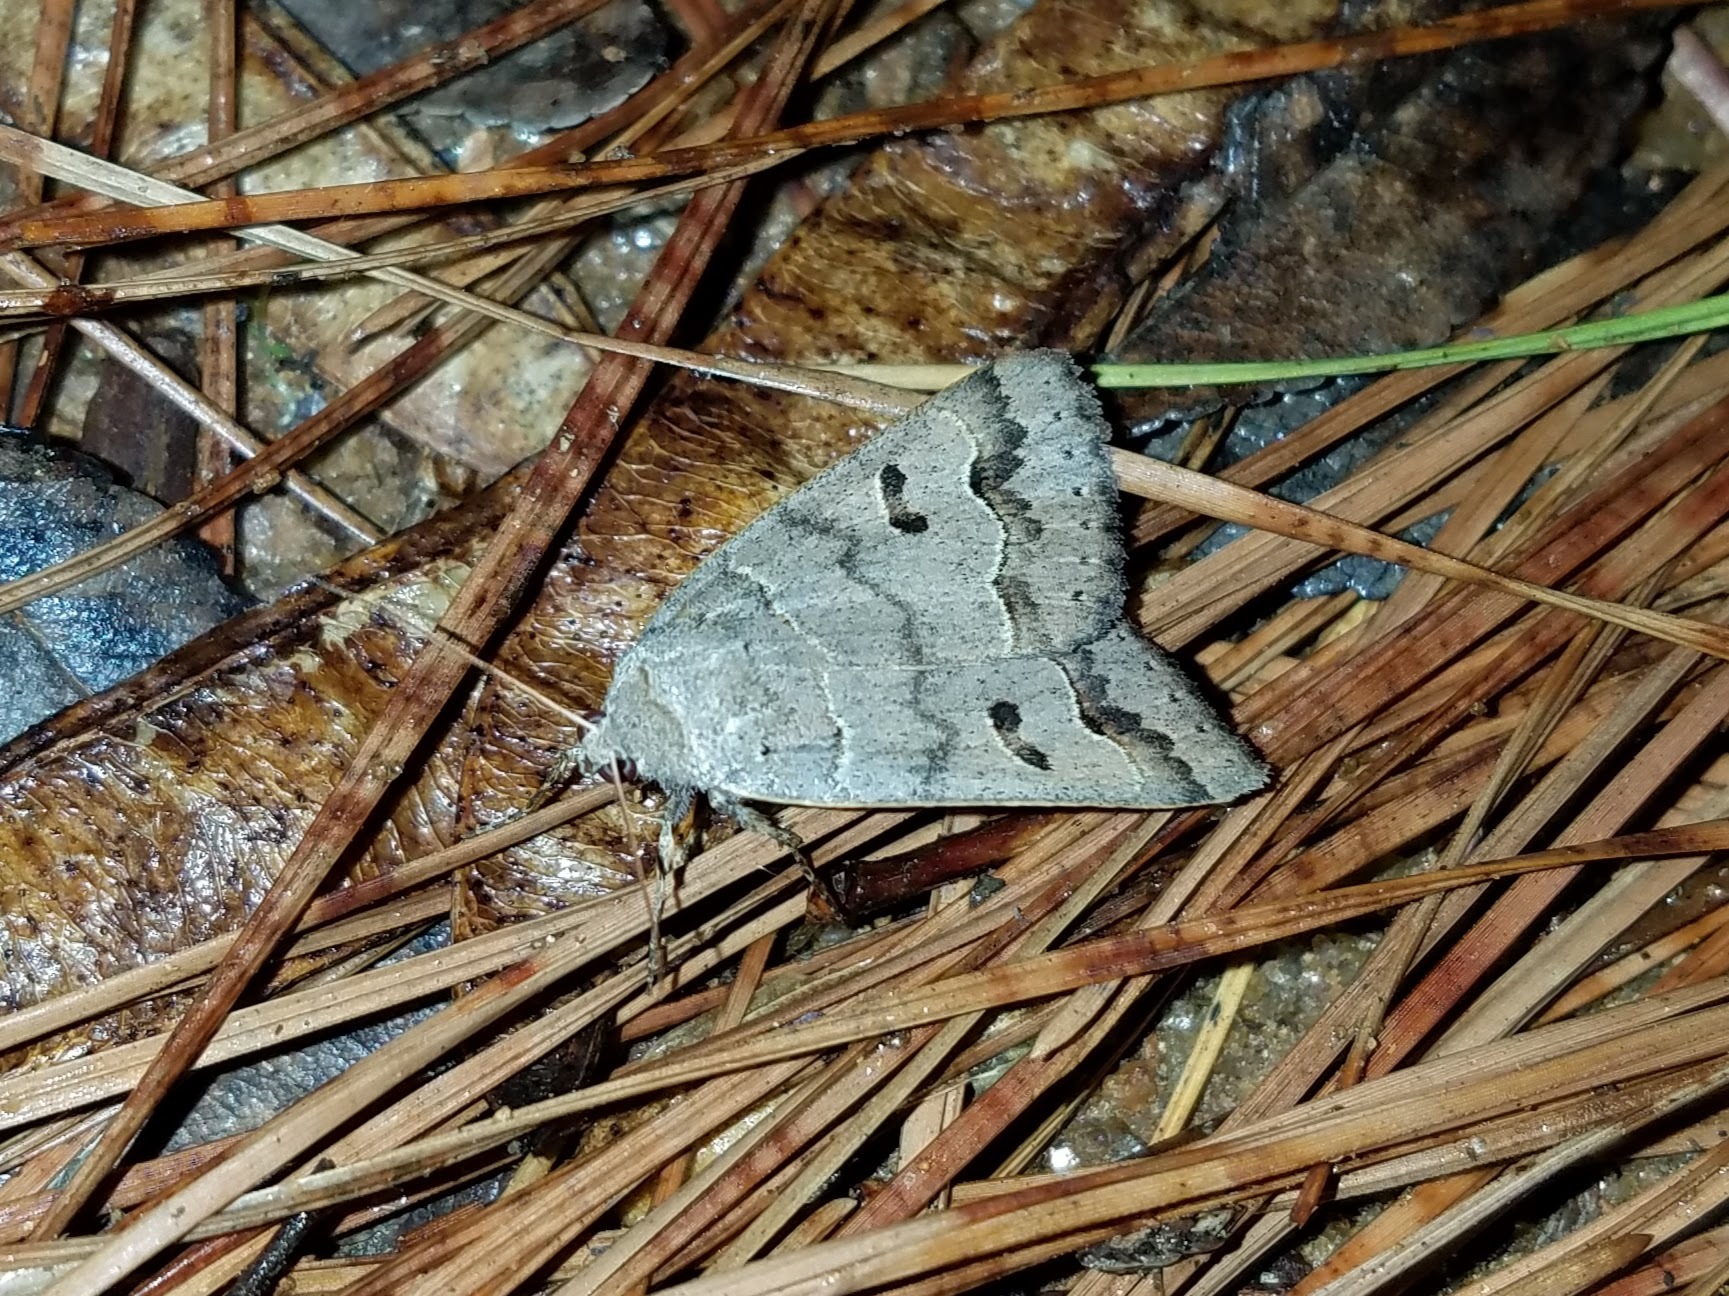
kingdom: Animalia
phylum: Arthropoda
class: Insecta
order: Lepidoptera
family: Erebidae
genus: Phoberia
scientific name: Phoberia
